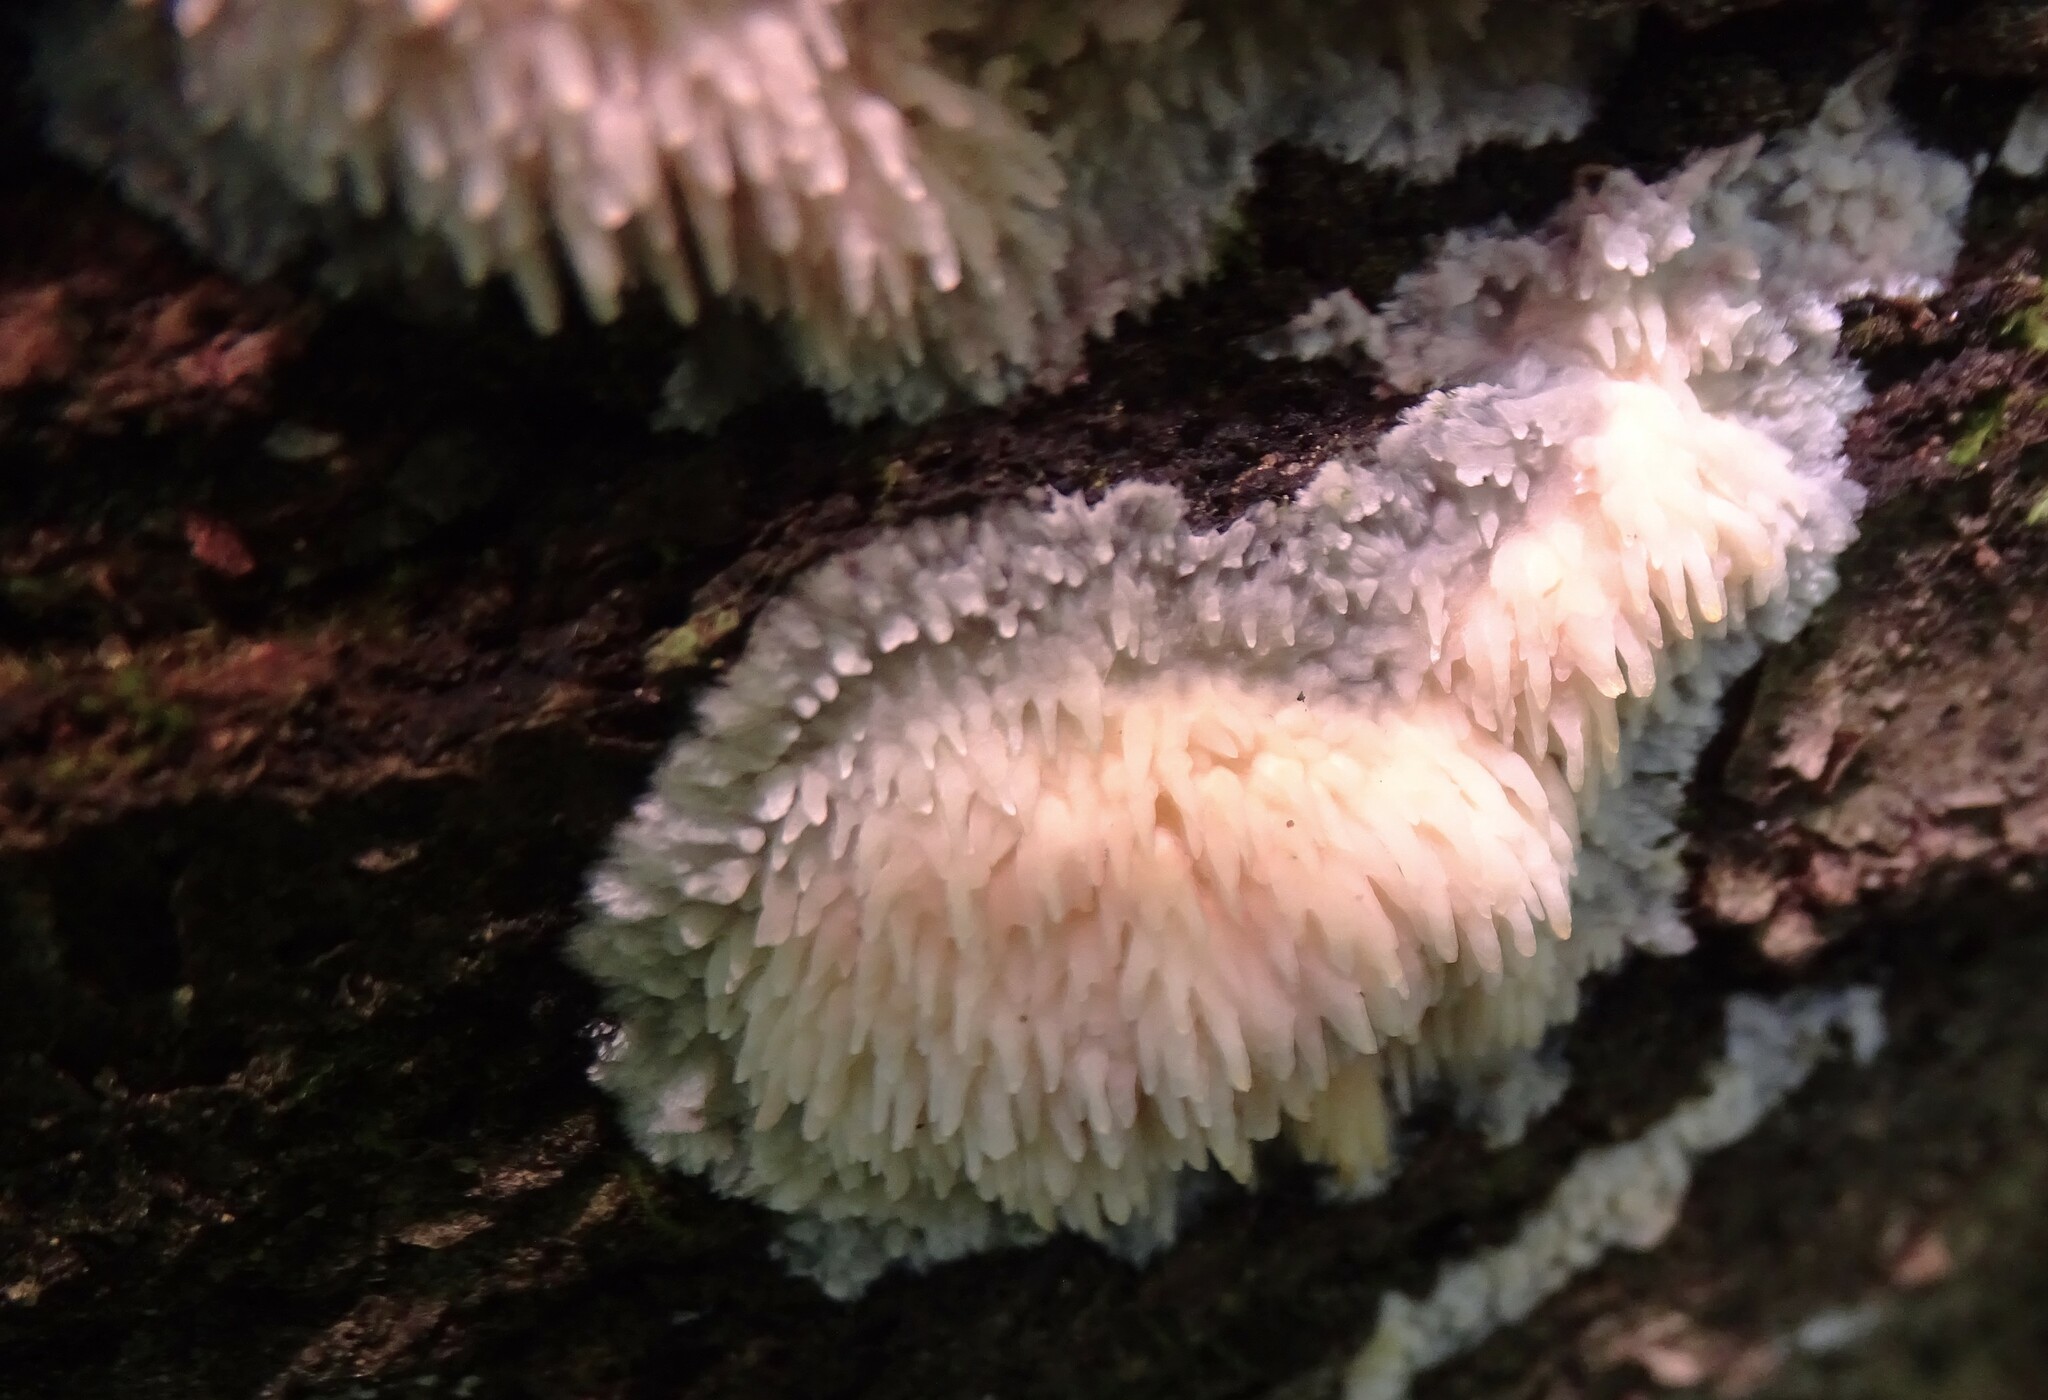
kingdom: Fungi
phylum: Basidiomycota
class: Agaricomycetes
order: Agaricales
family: Radulomycetaceae
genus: Radulomyces
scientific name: Radulomyces copelandii
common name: Asian beauty
